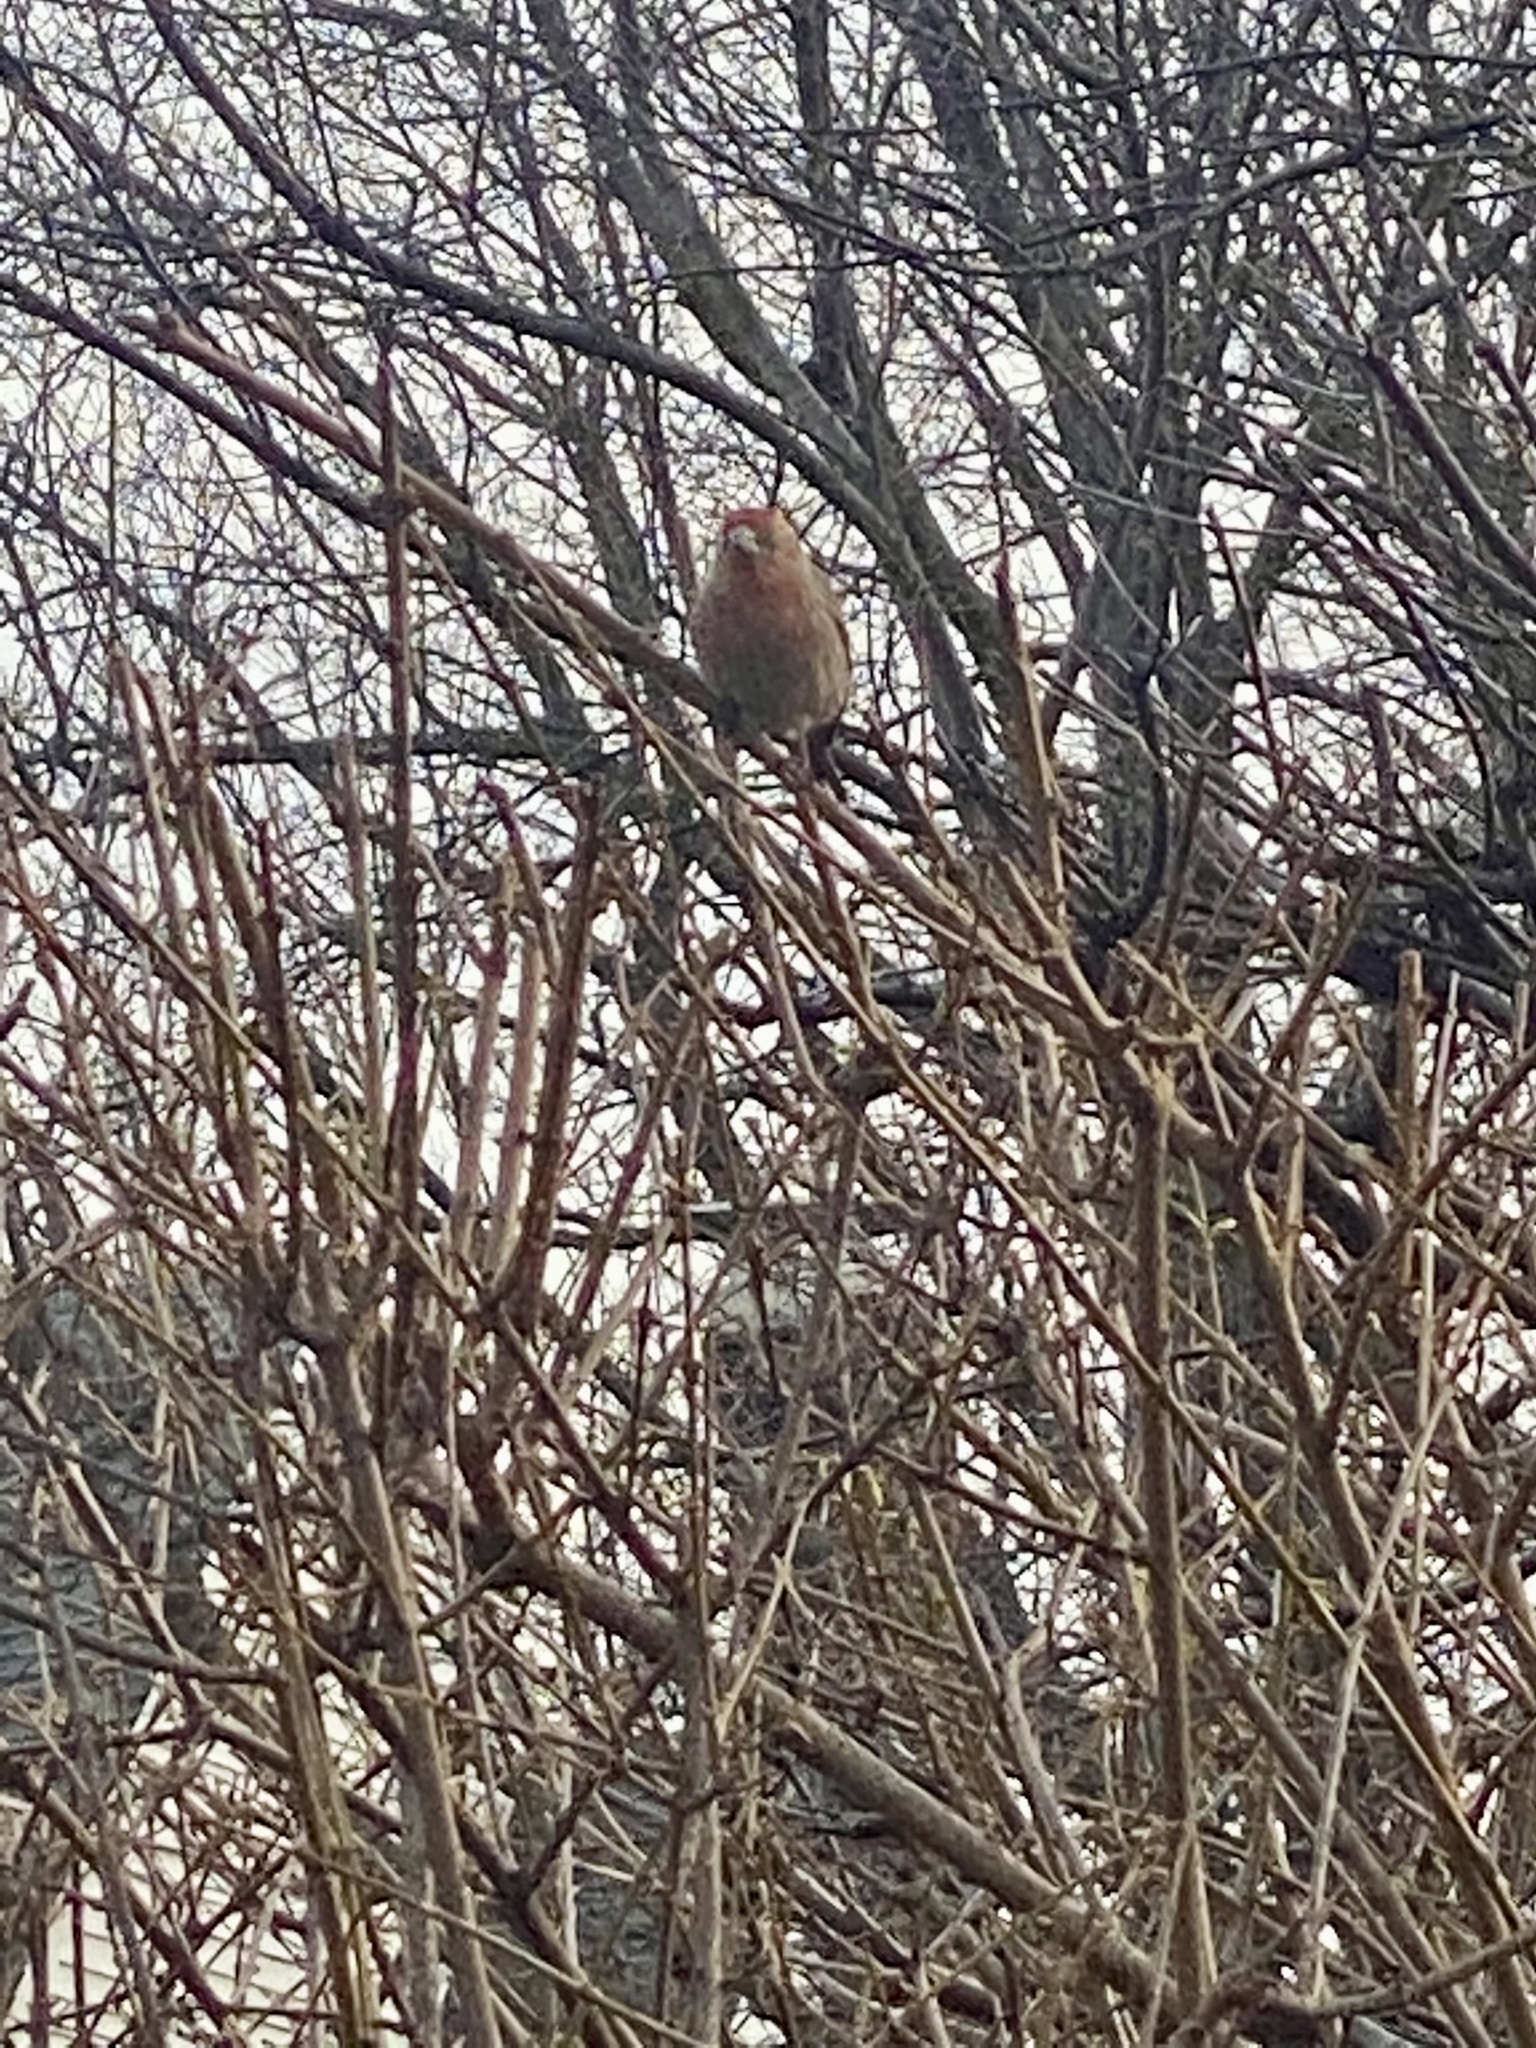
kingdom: Animalia
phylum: Chordata
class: Aves
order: Passeriformes
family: Fringillidae
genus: Haemorhous
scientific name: Haemorhous mexicanus
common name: House finch
